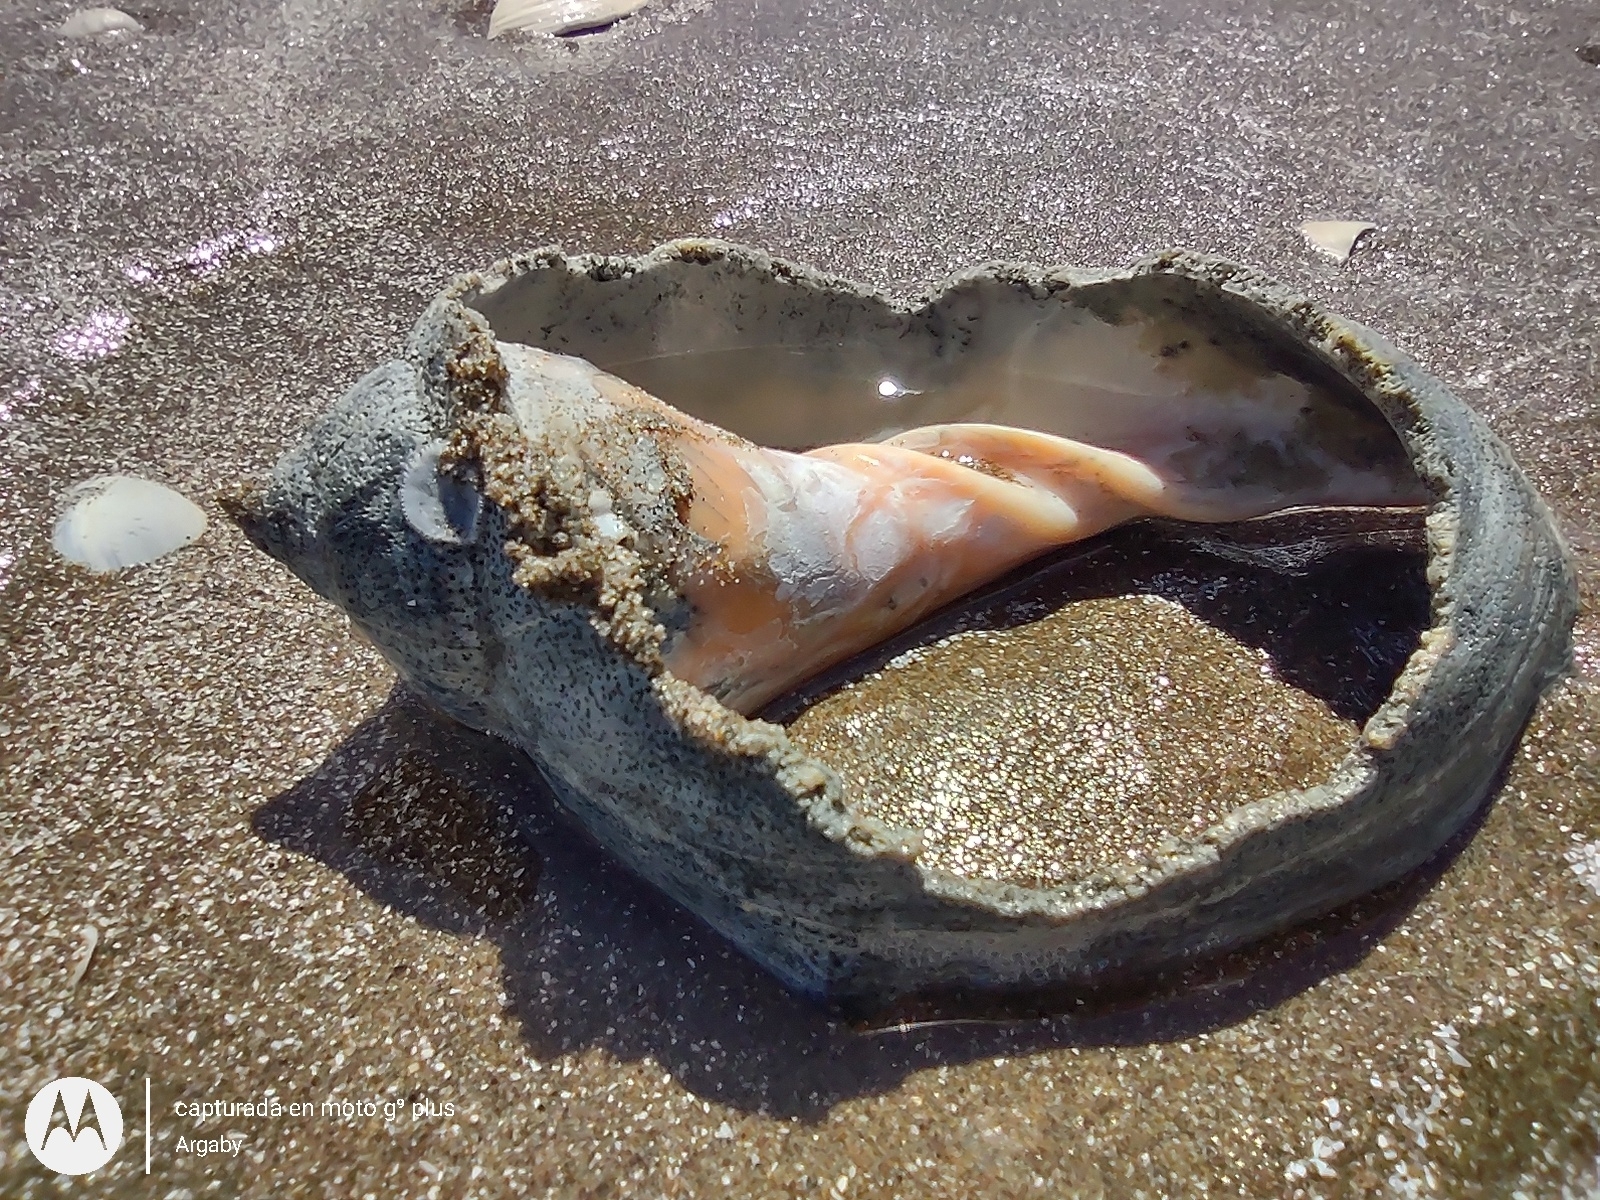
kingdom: Animalia
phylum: Mollusca
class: Gastropoda
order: Neogastropoda
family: Volutidae
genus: Pachycymbiola
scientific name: Pachycymbiola brasiliana
